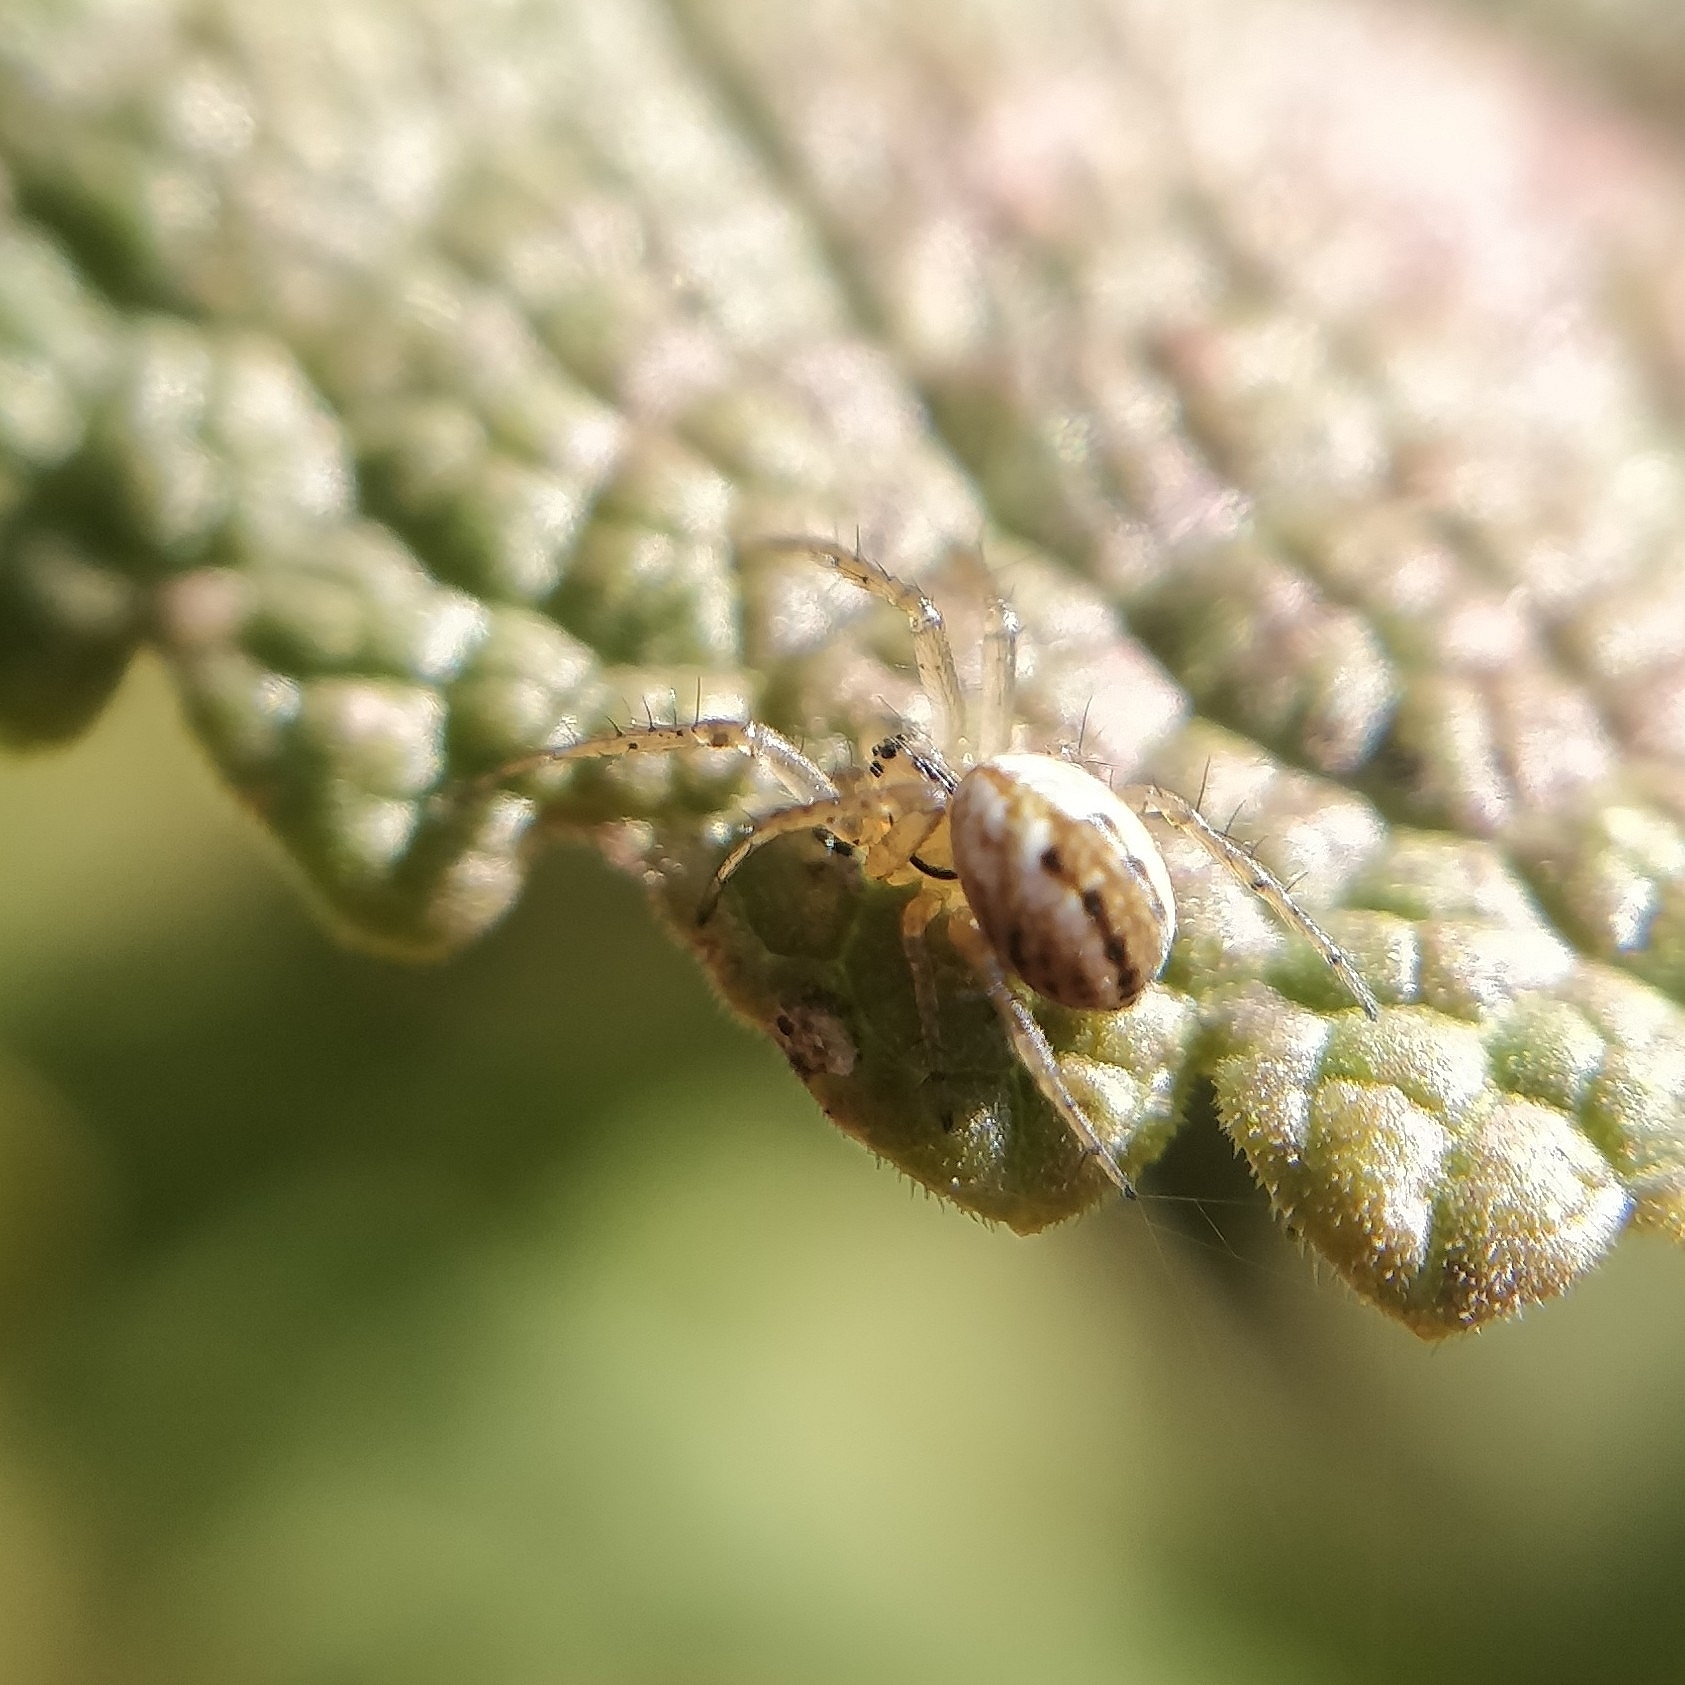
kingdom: Animalia
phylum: Arthropoda
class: Arachnida
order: Araneae
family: Araneidae
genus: Mangora
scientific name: Mangora acalypha
